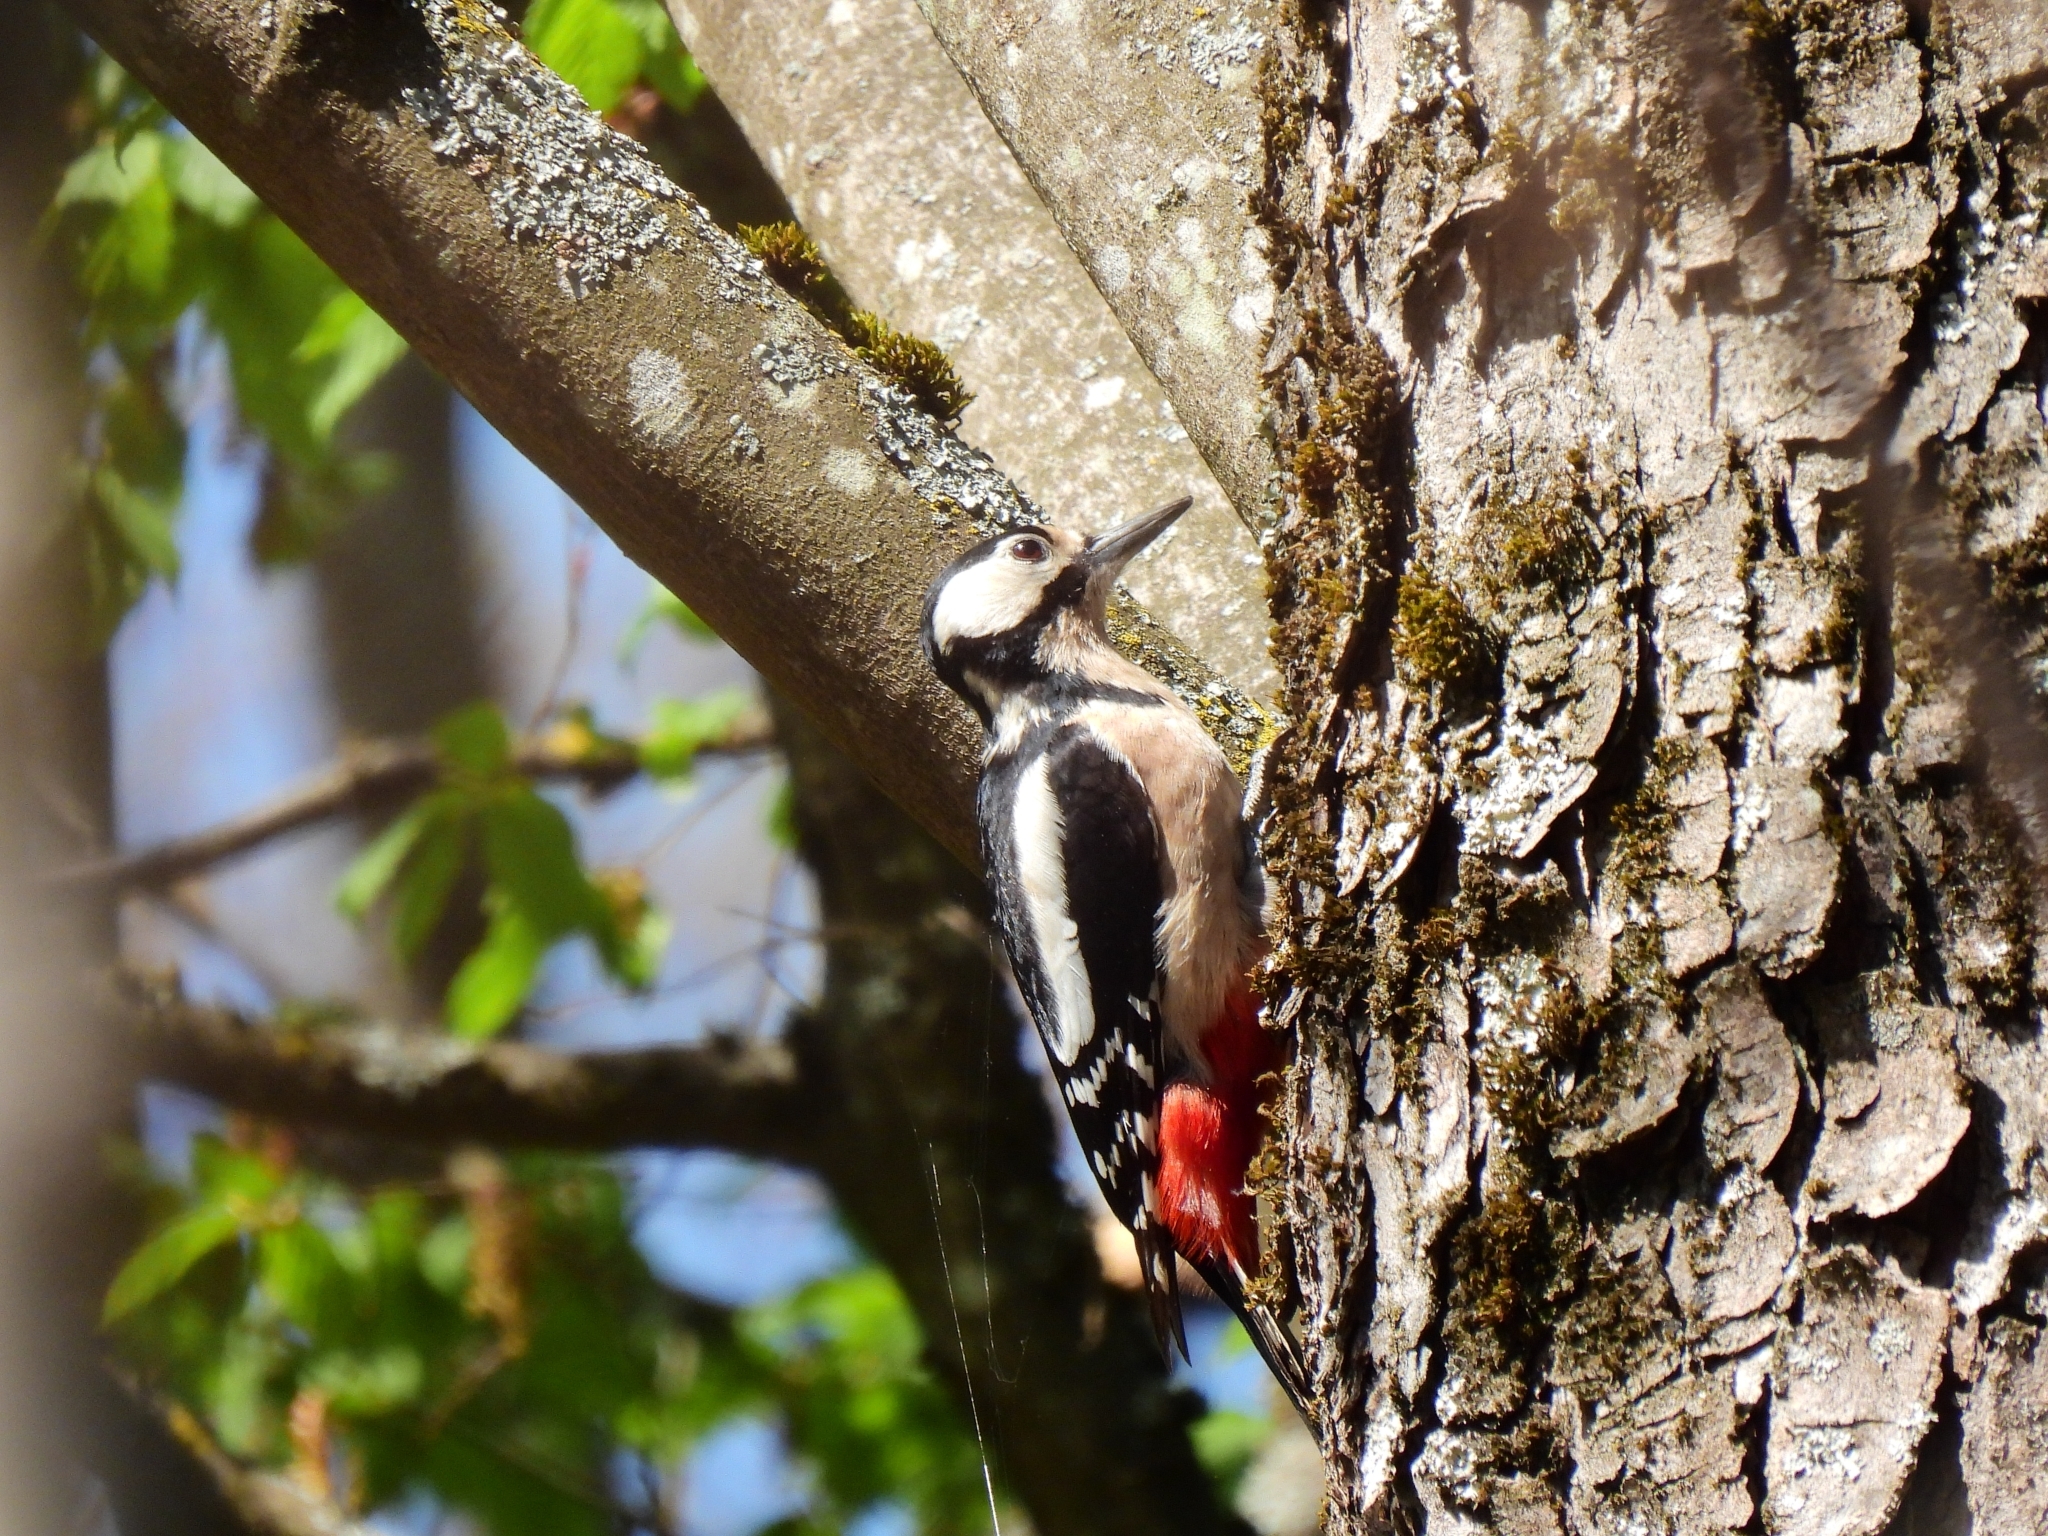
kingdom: Animalia
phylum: Chordata
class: Aves
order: Piciformes
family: Picidae
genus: Dendrocopos
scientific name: Dendrocopos major
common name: Great spotted woodpecker
